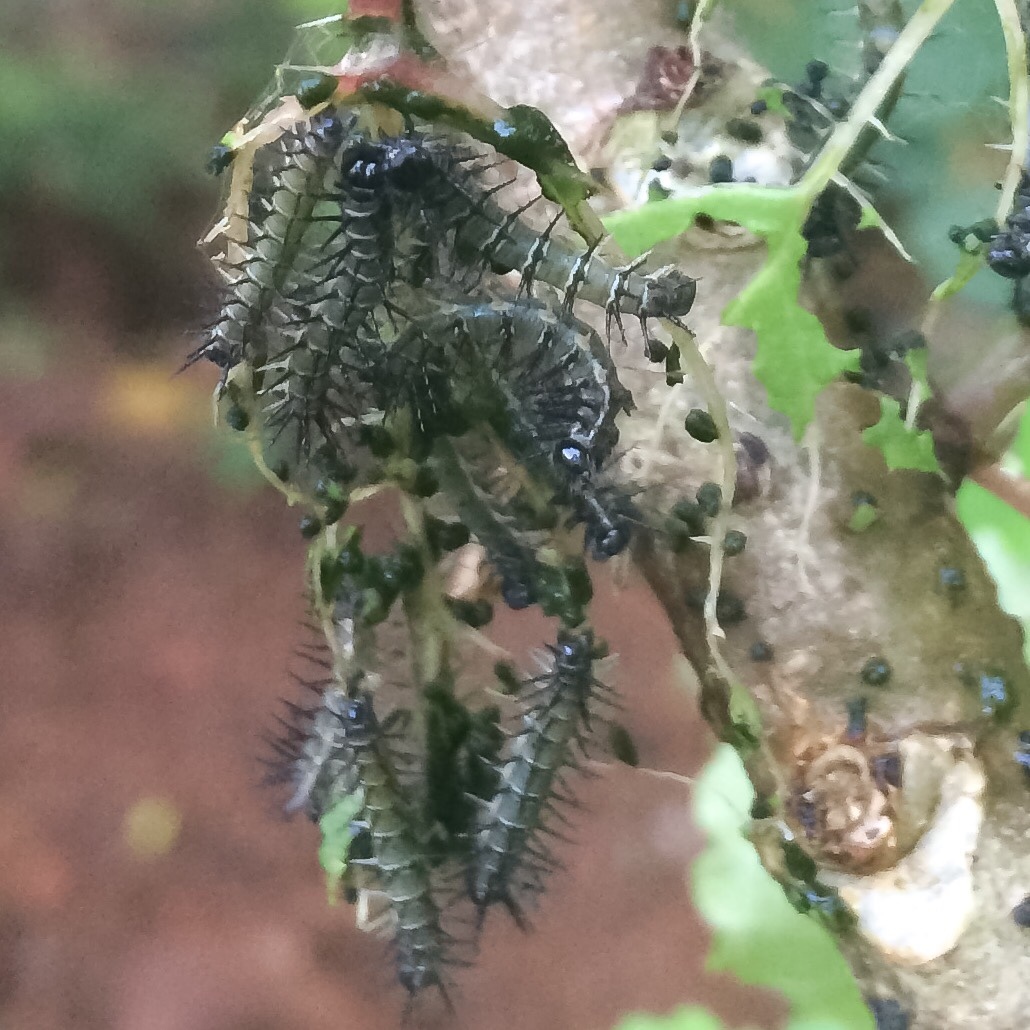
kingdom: Animalia
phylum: Arthropoda
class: Insecta
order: Lepidoptera
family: Nymphalidae
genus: Acraea
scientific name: Acraea esebria
